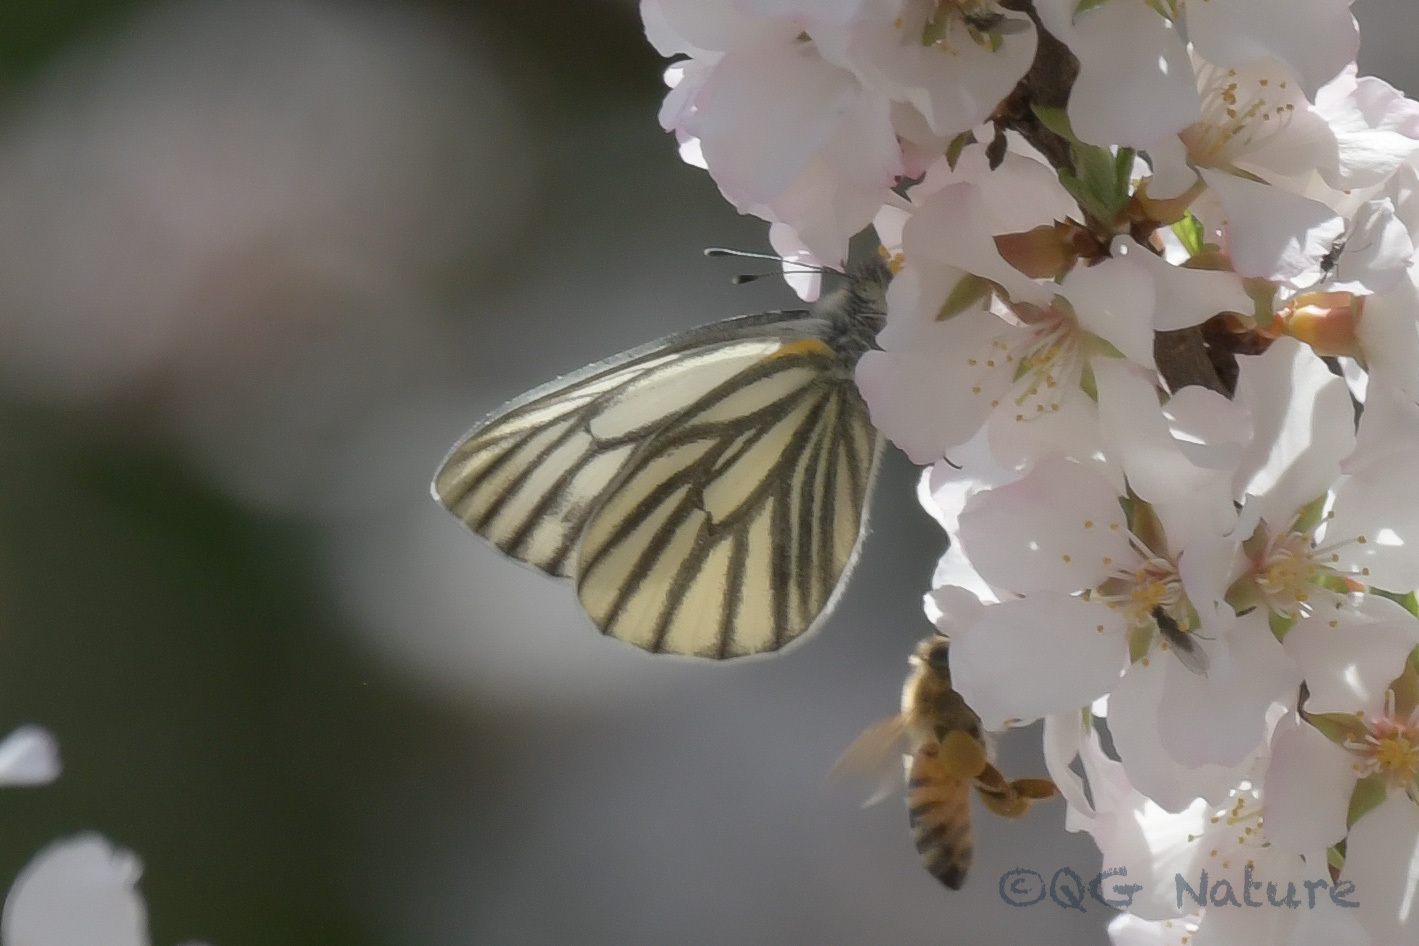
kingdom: Animalia
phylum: Arthropoda
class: Insecta
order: Lepidoptera
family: Pieridae
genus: Pieris
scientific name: Pieris dulcinea
